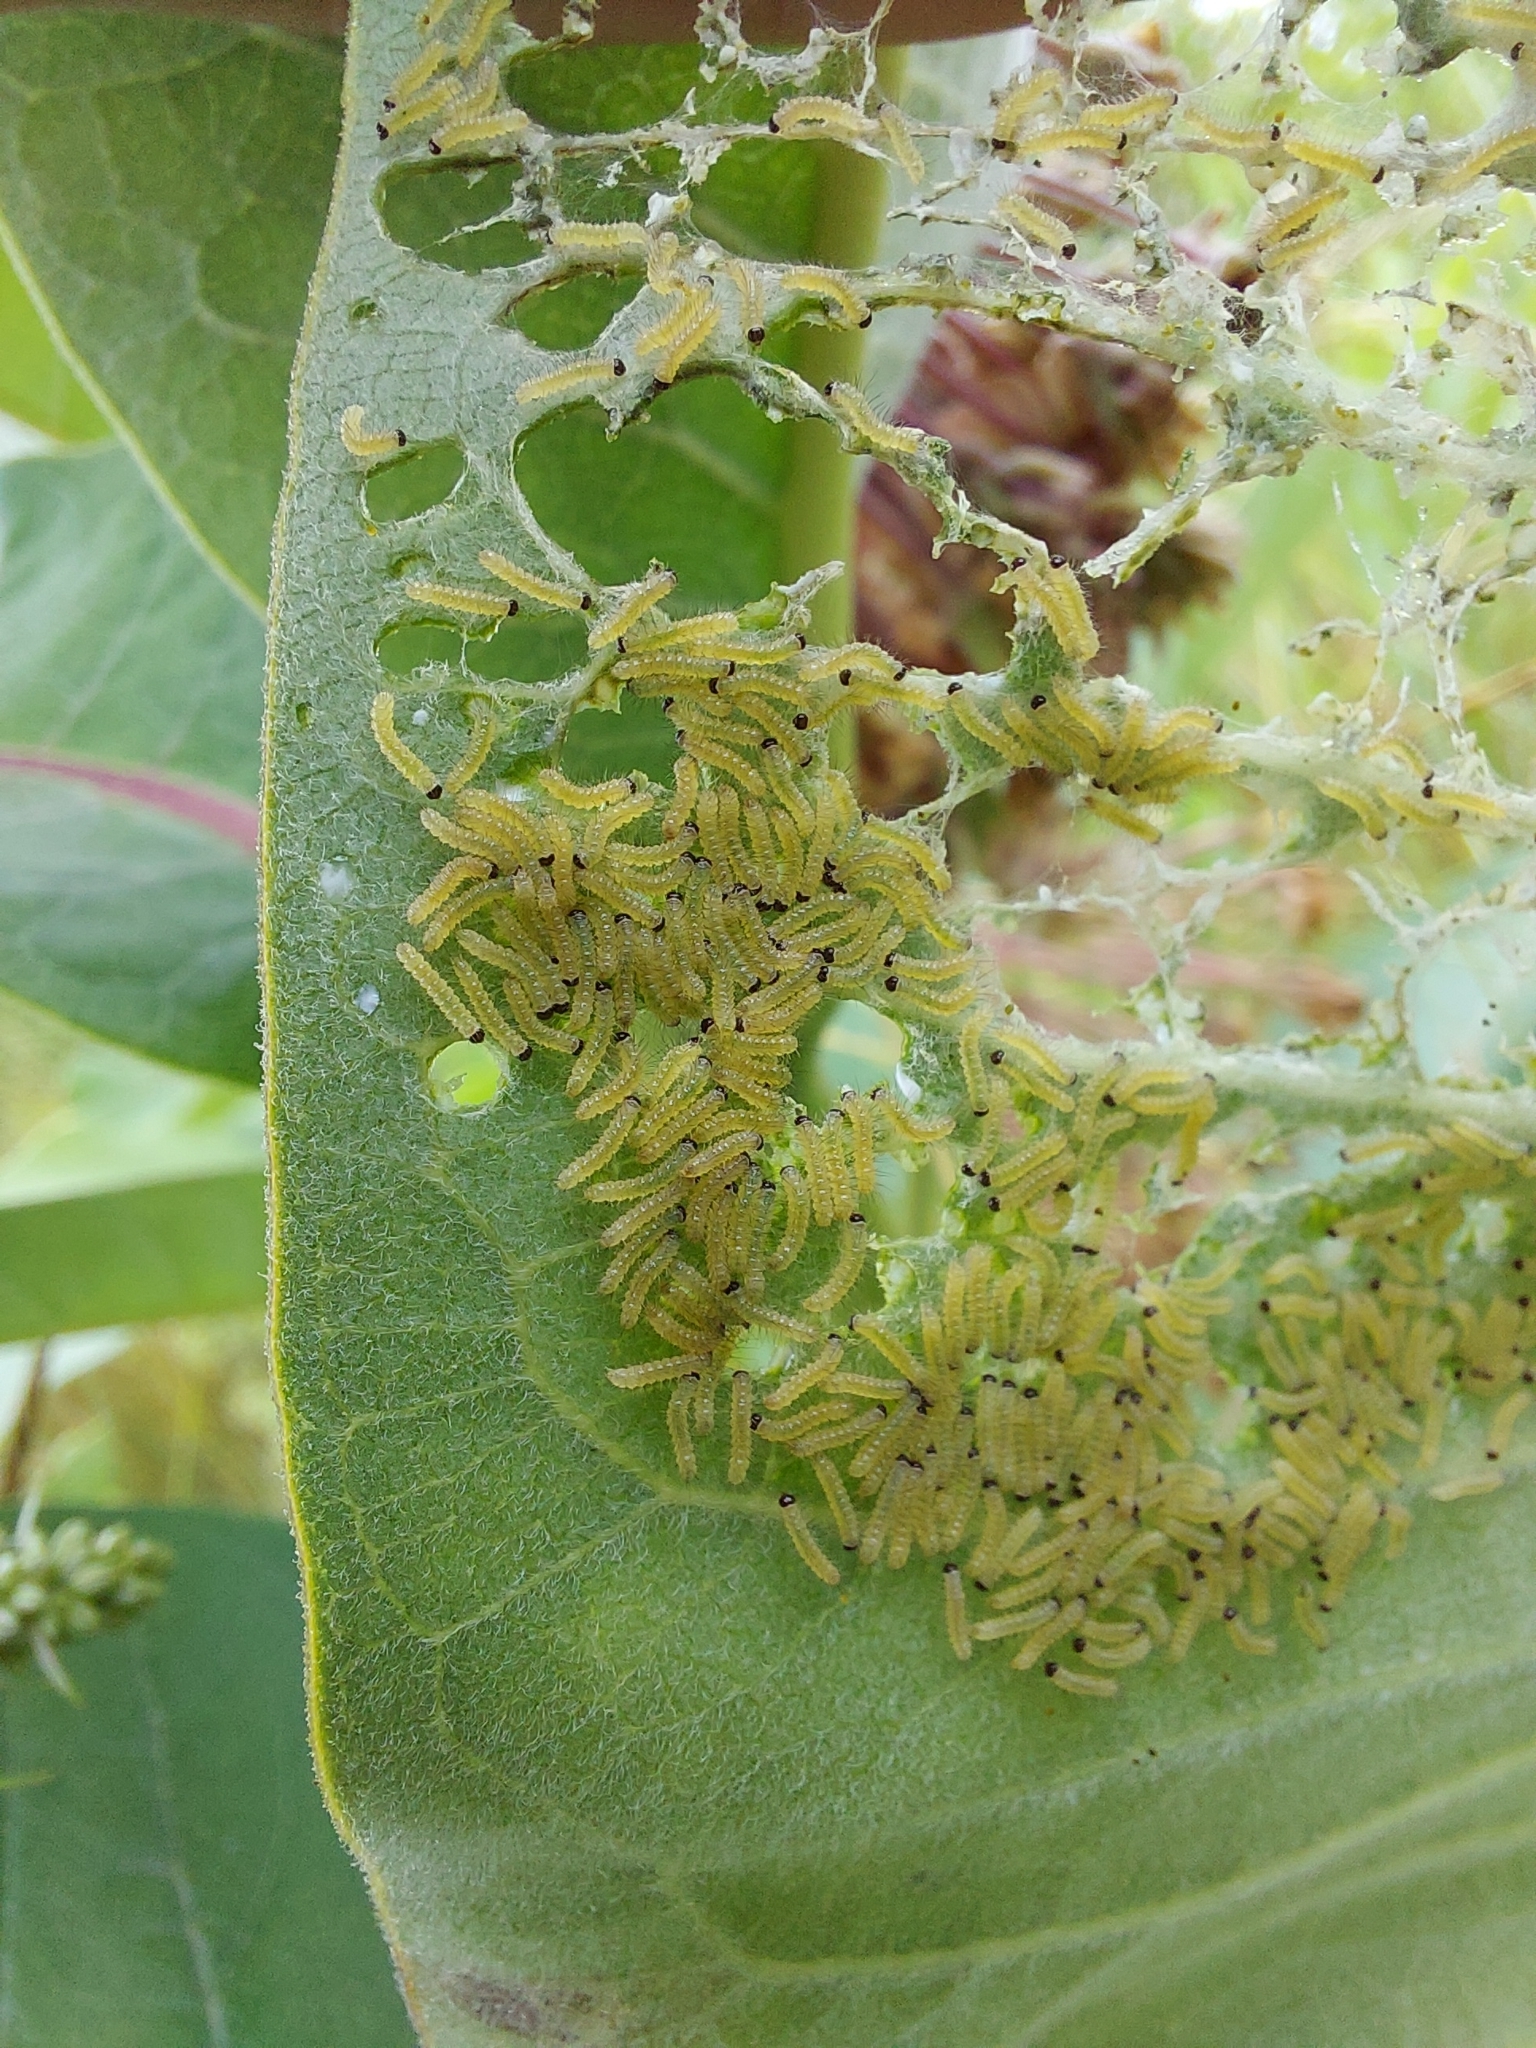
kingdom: Animalia
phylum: Arthropoda
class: Insecta
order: Lepidoptera
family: Erebidae
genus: Euchaetes
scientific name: Euchaetes egle
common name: Milkweed tussock moth
